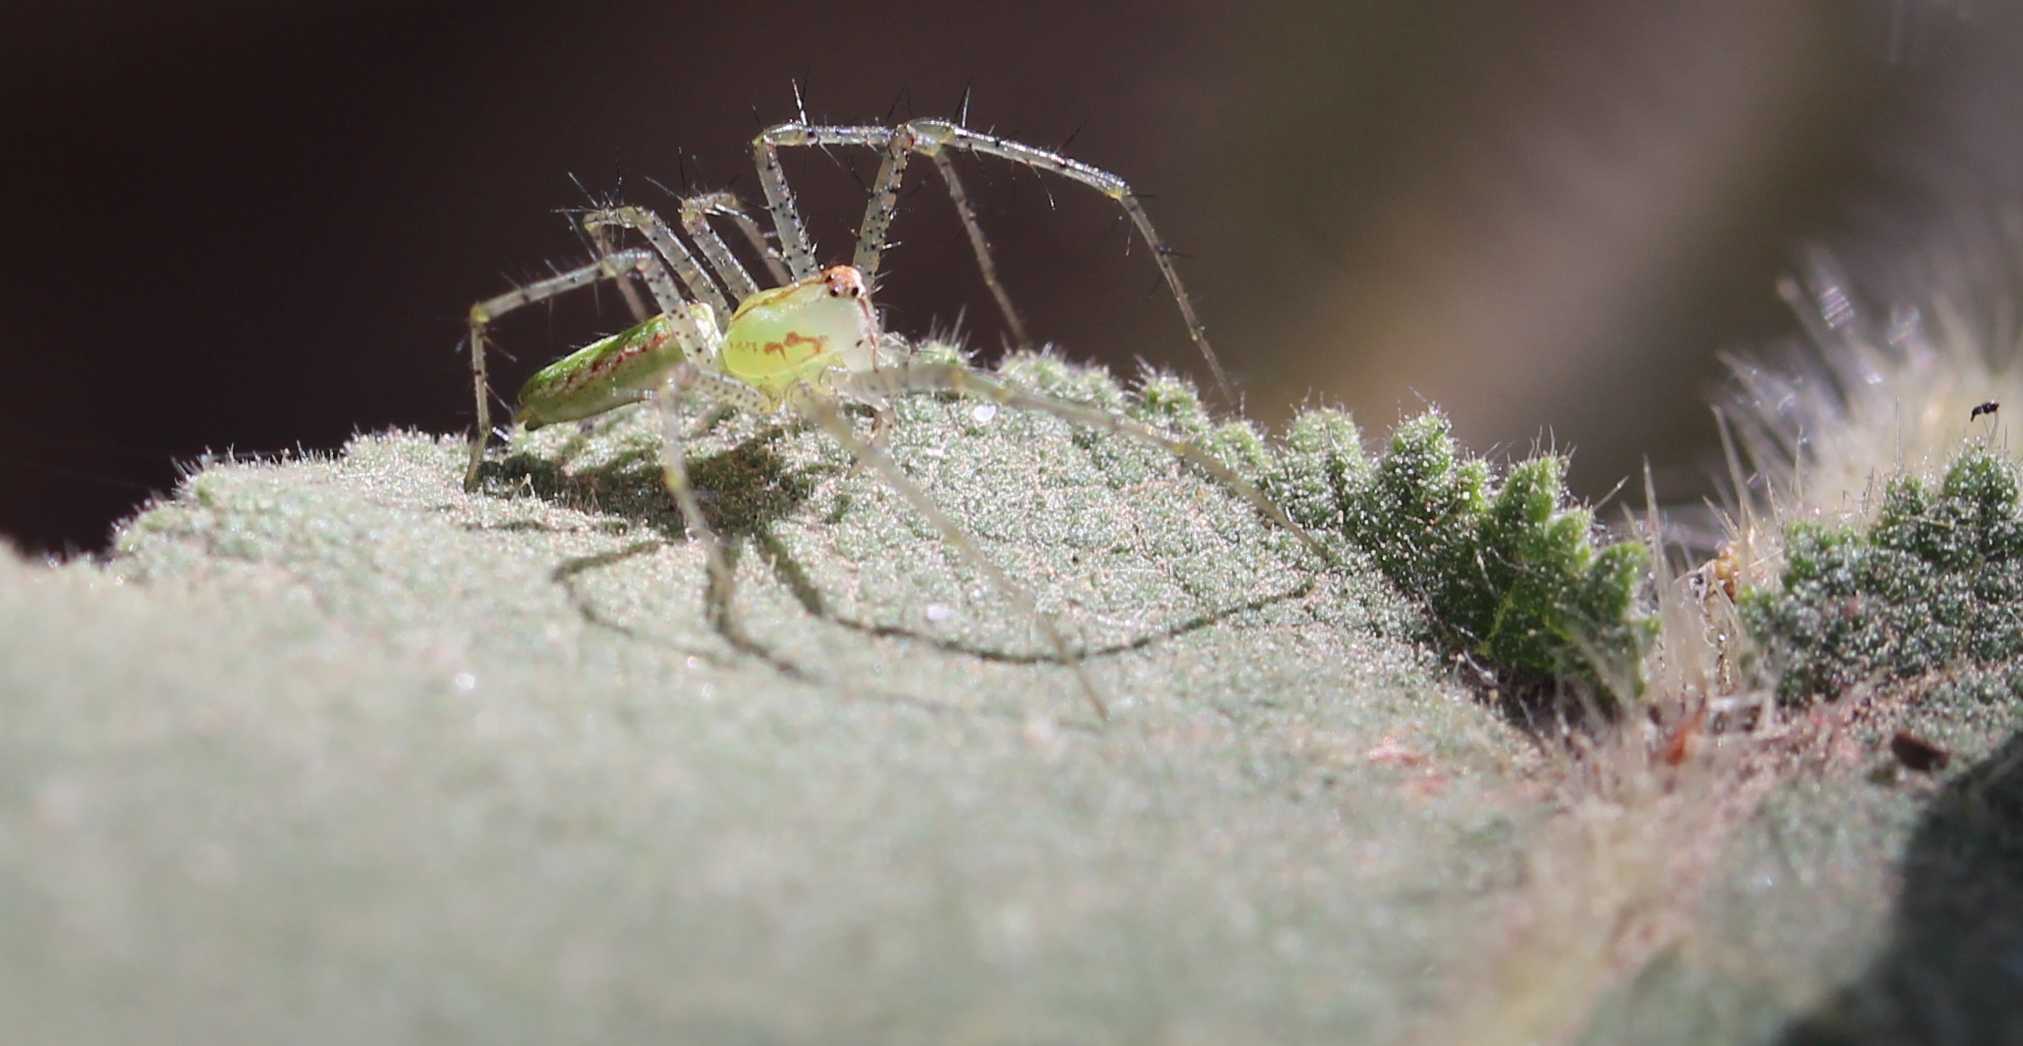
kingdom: Animalia
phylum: Arthropoda
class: Arachnida
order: Araneae
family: Oxyopidae
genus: Peucetia
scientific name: Peucetia
